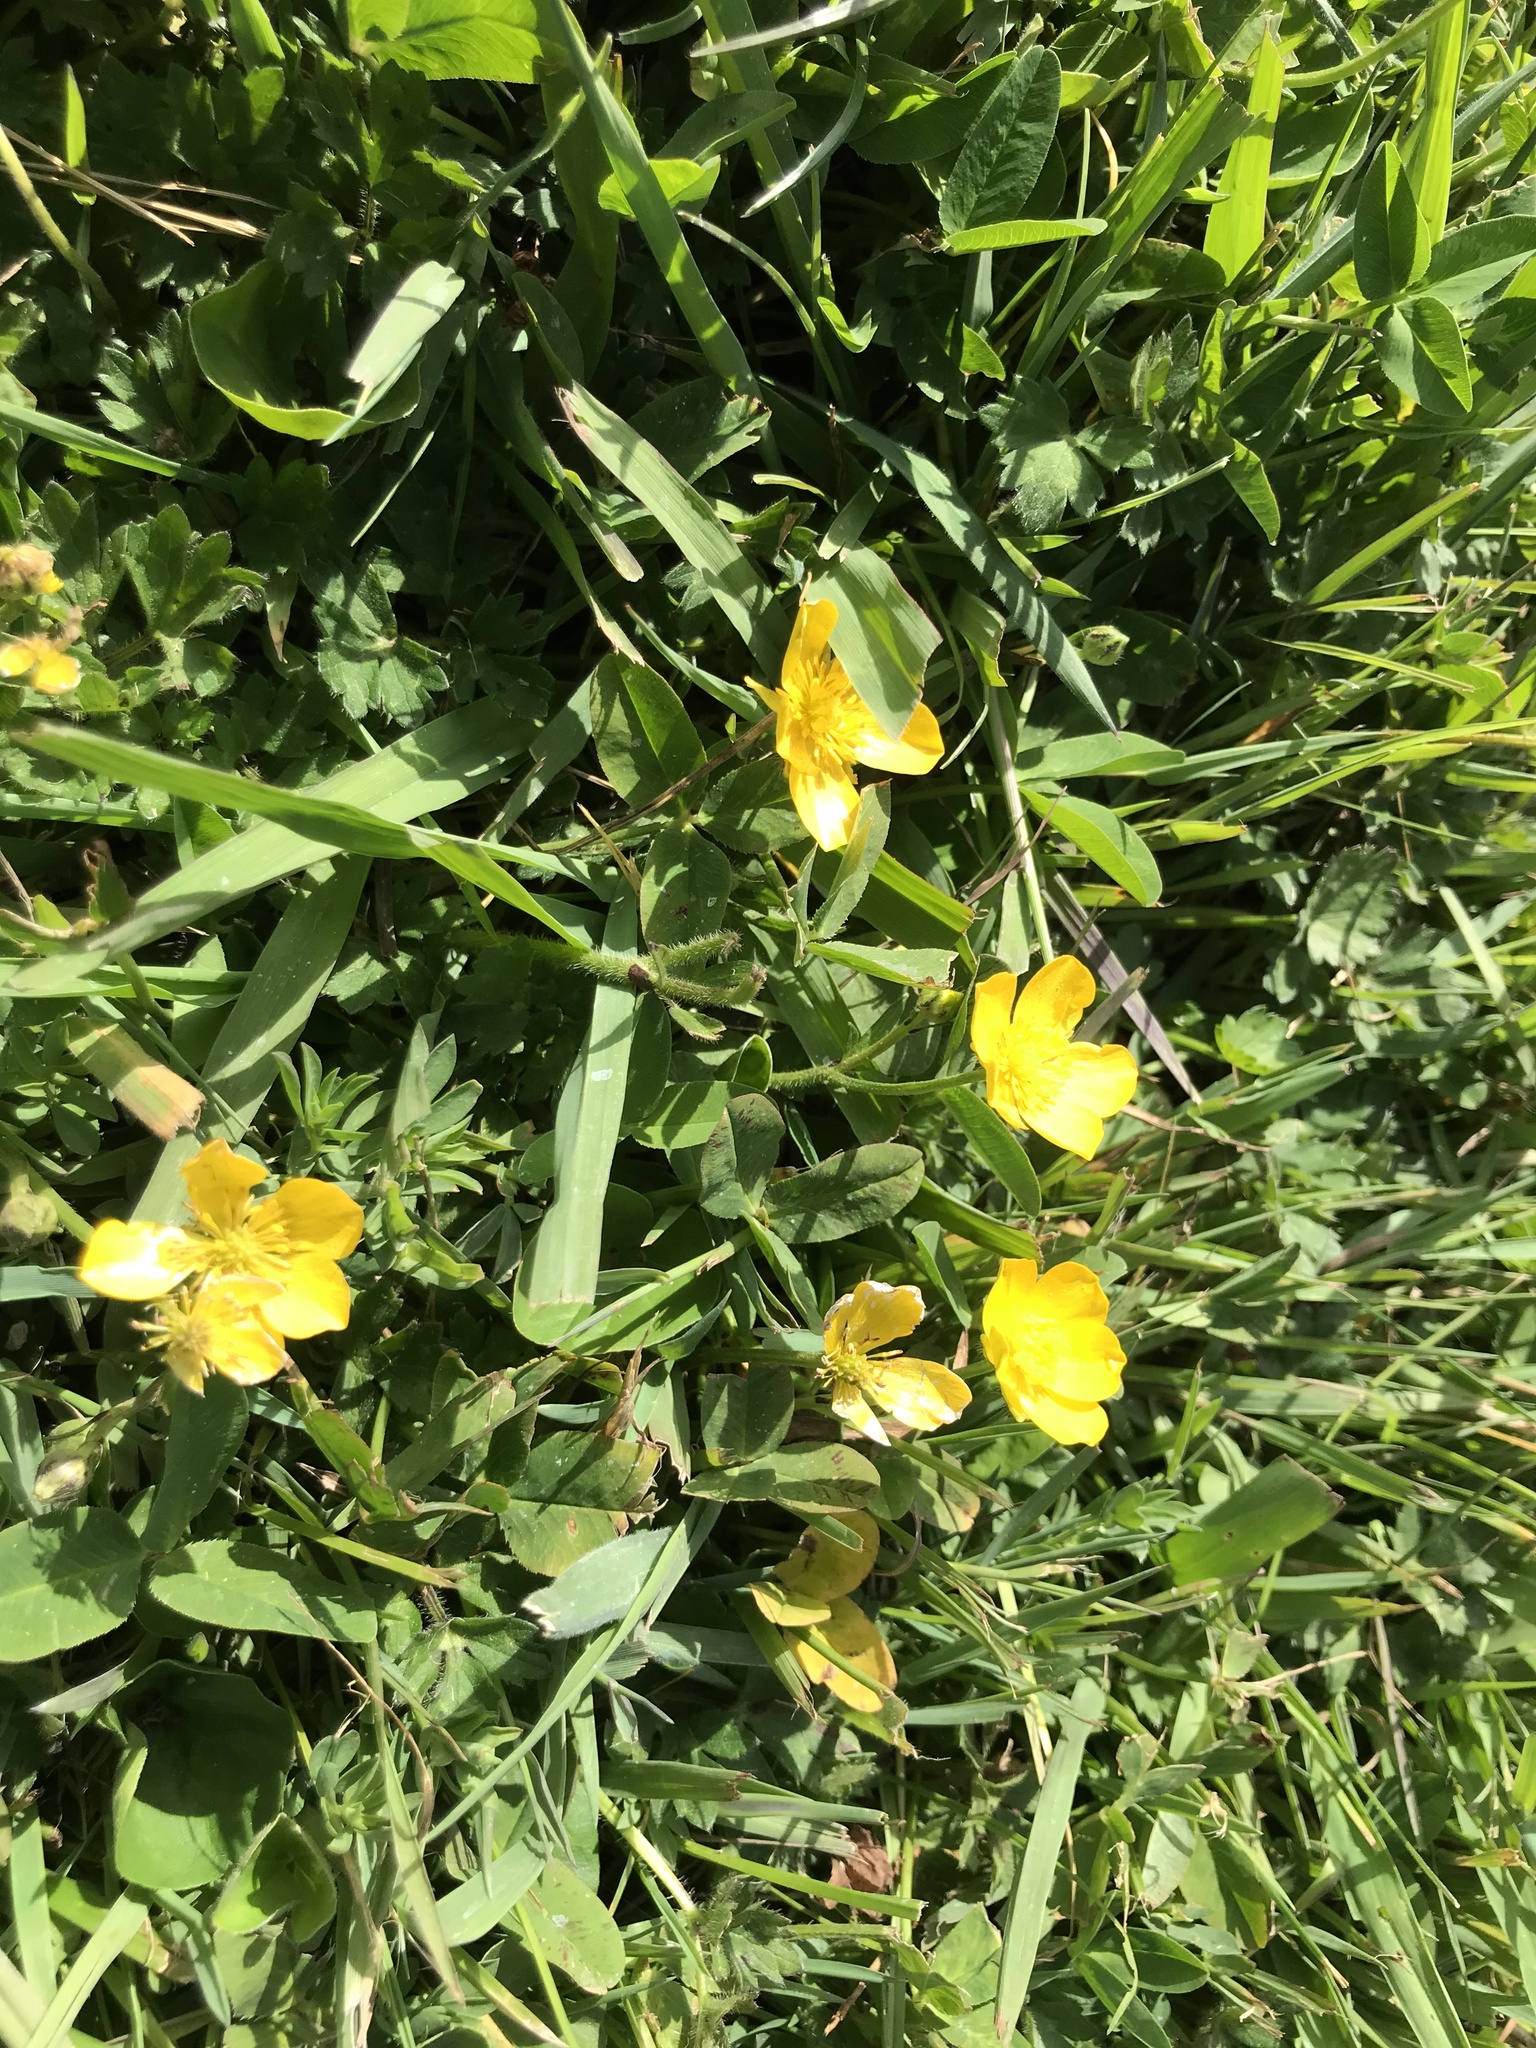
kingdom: Plantae
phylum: Tracheophyta
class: Magnoliopsida
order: Ranunculales
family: Ranunculaceae
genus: Ranunculus
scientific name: Ranunculus repens
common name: Creeping buttercup
